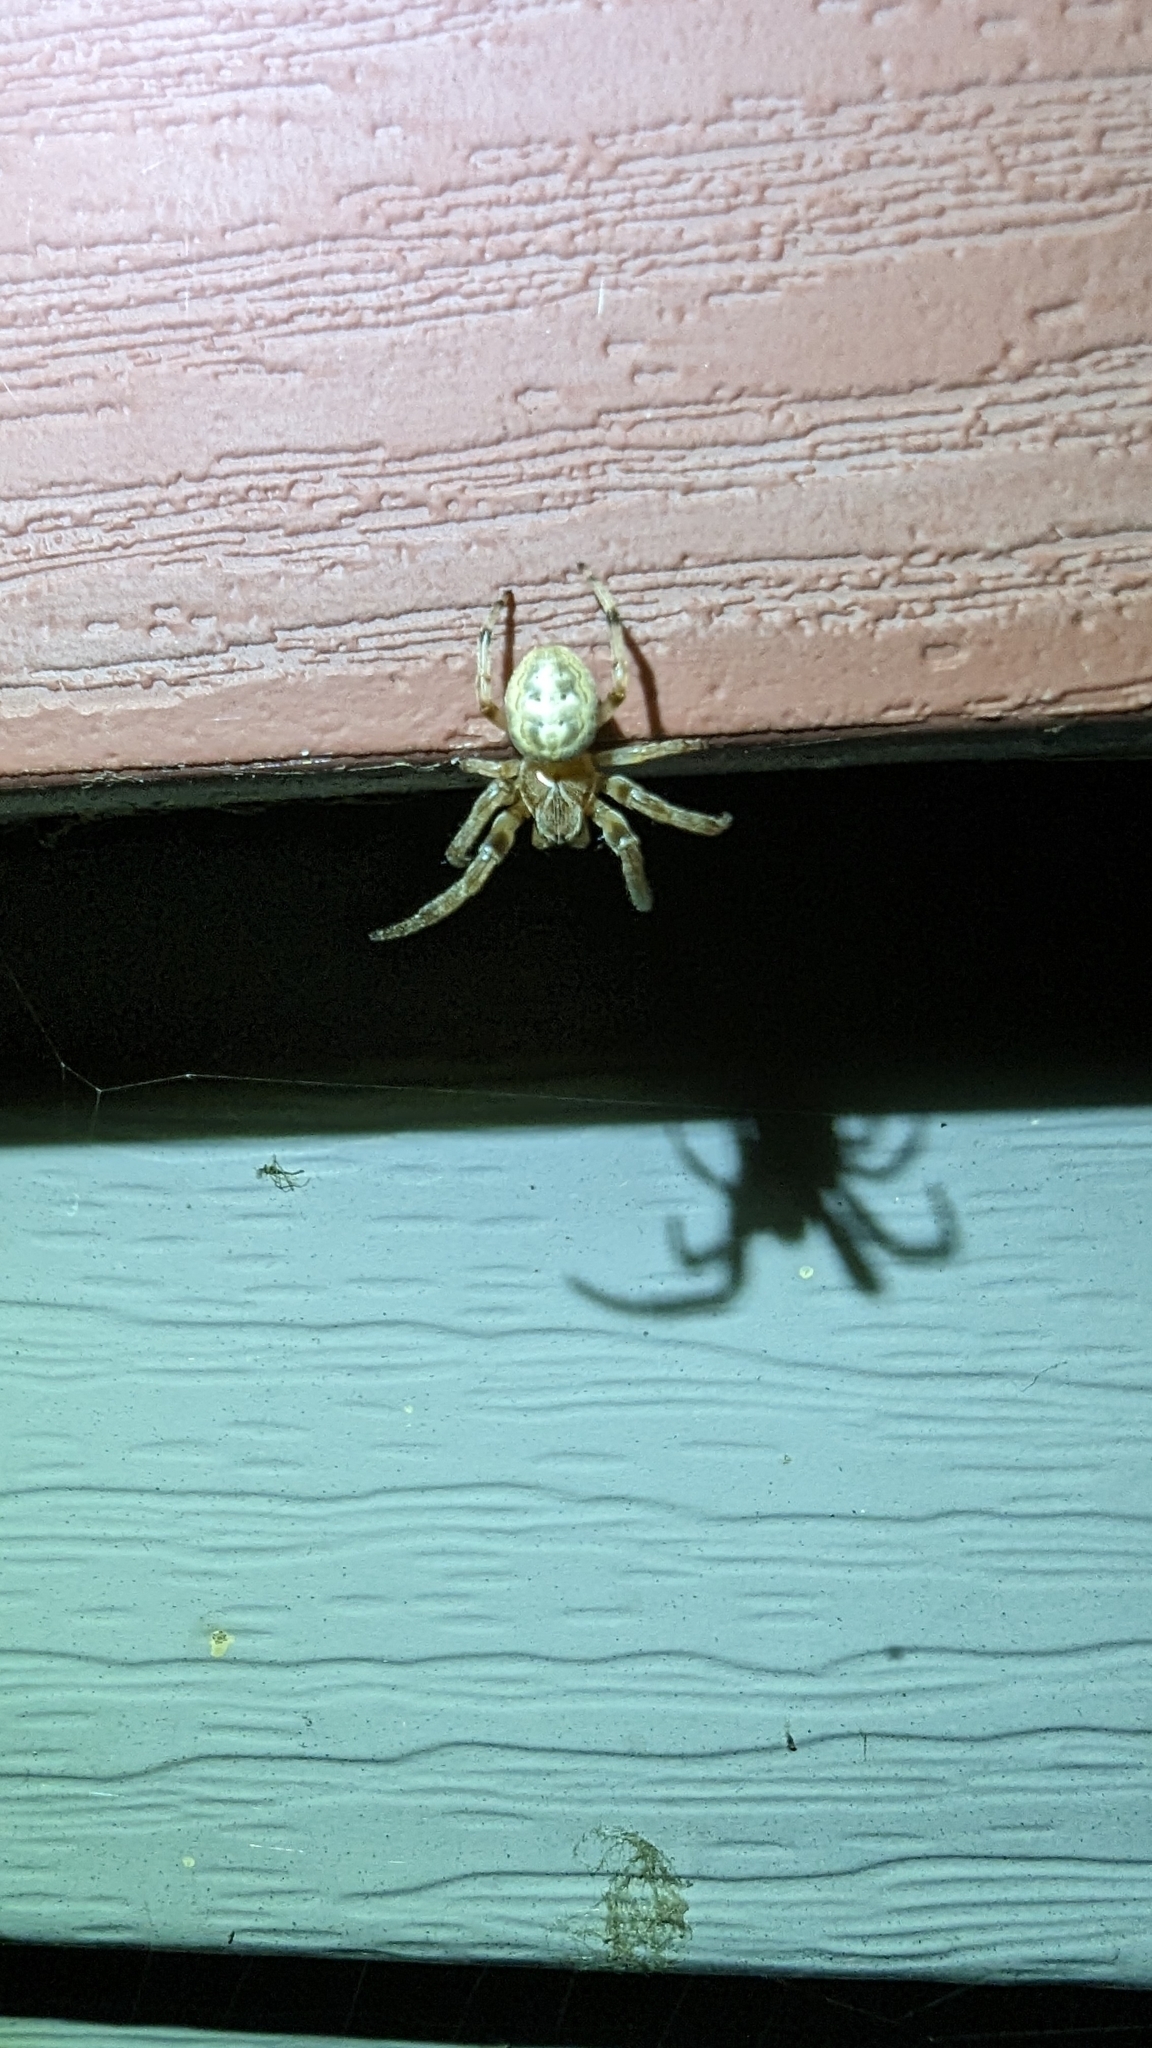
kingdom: Animalia
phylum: Arthropoda
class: Arachnida
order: Araneae
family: Araneidae
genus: Larinioides
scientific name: Larinioides cornutus
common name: Furrow orbweaver
